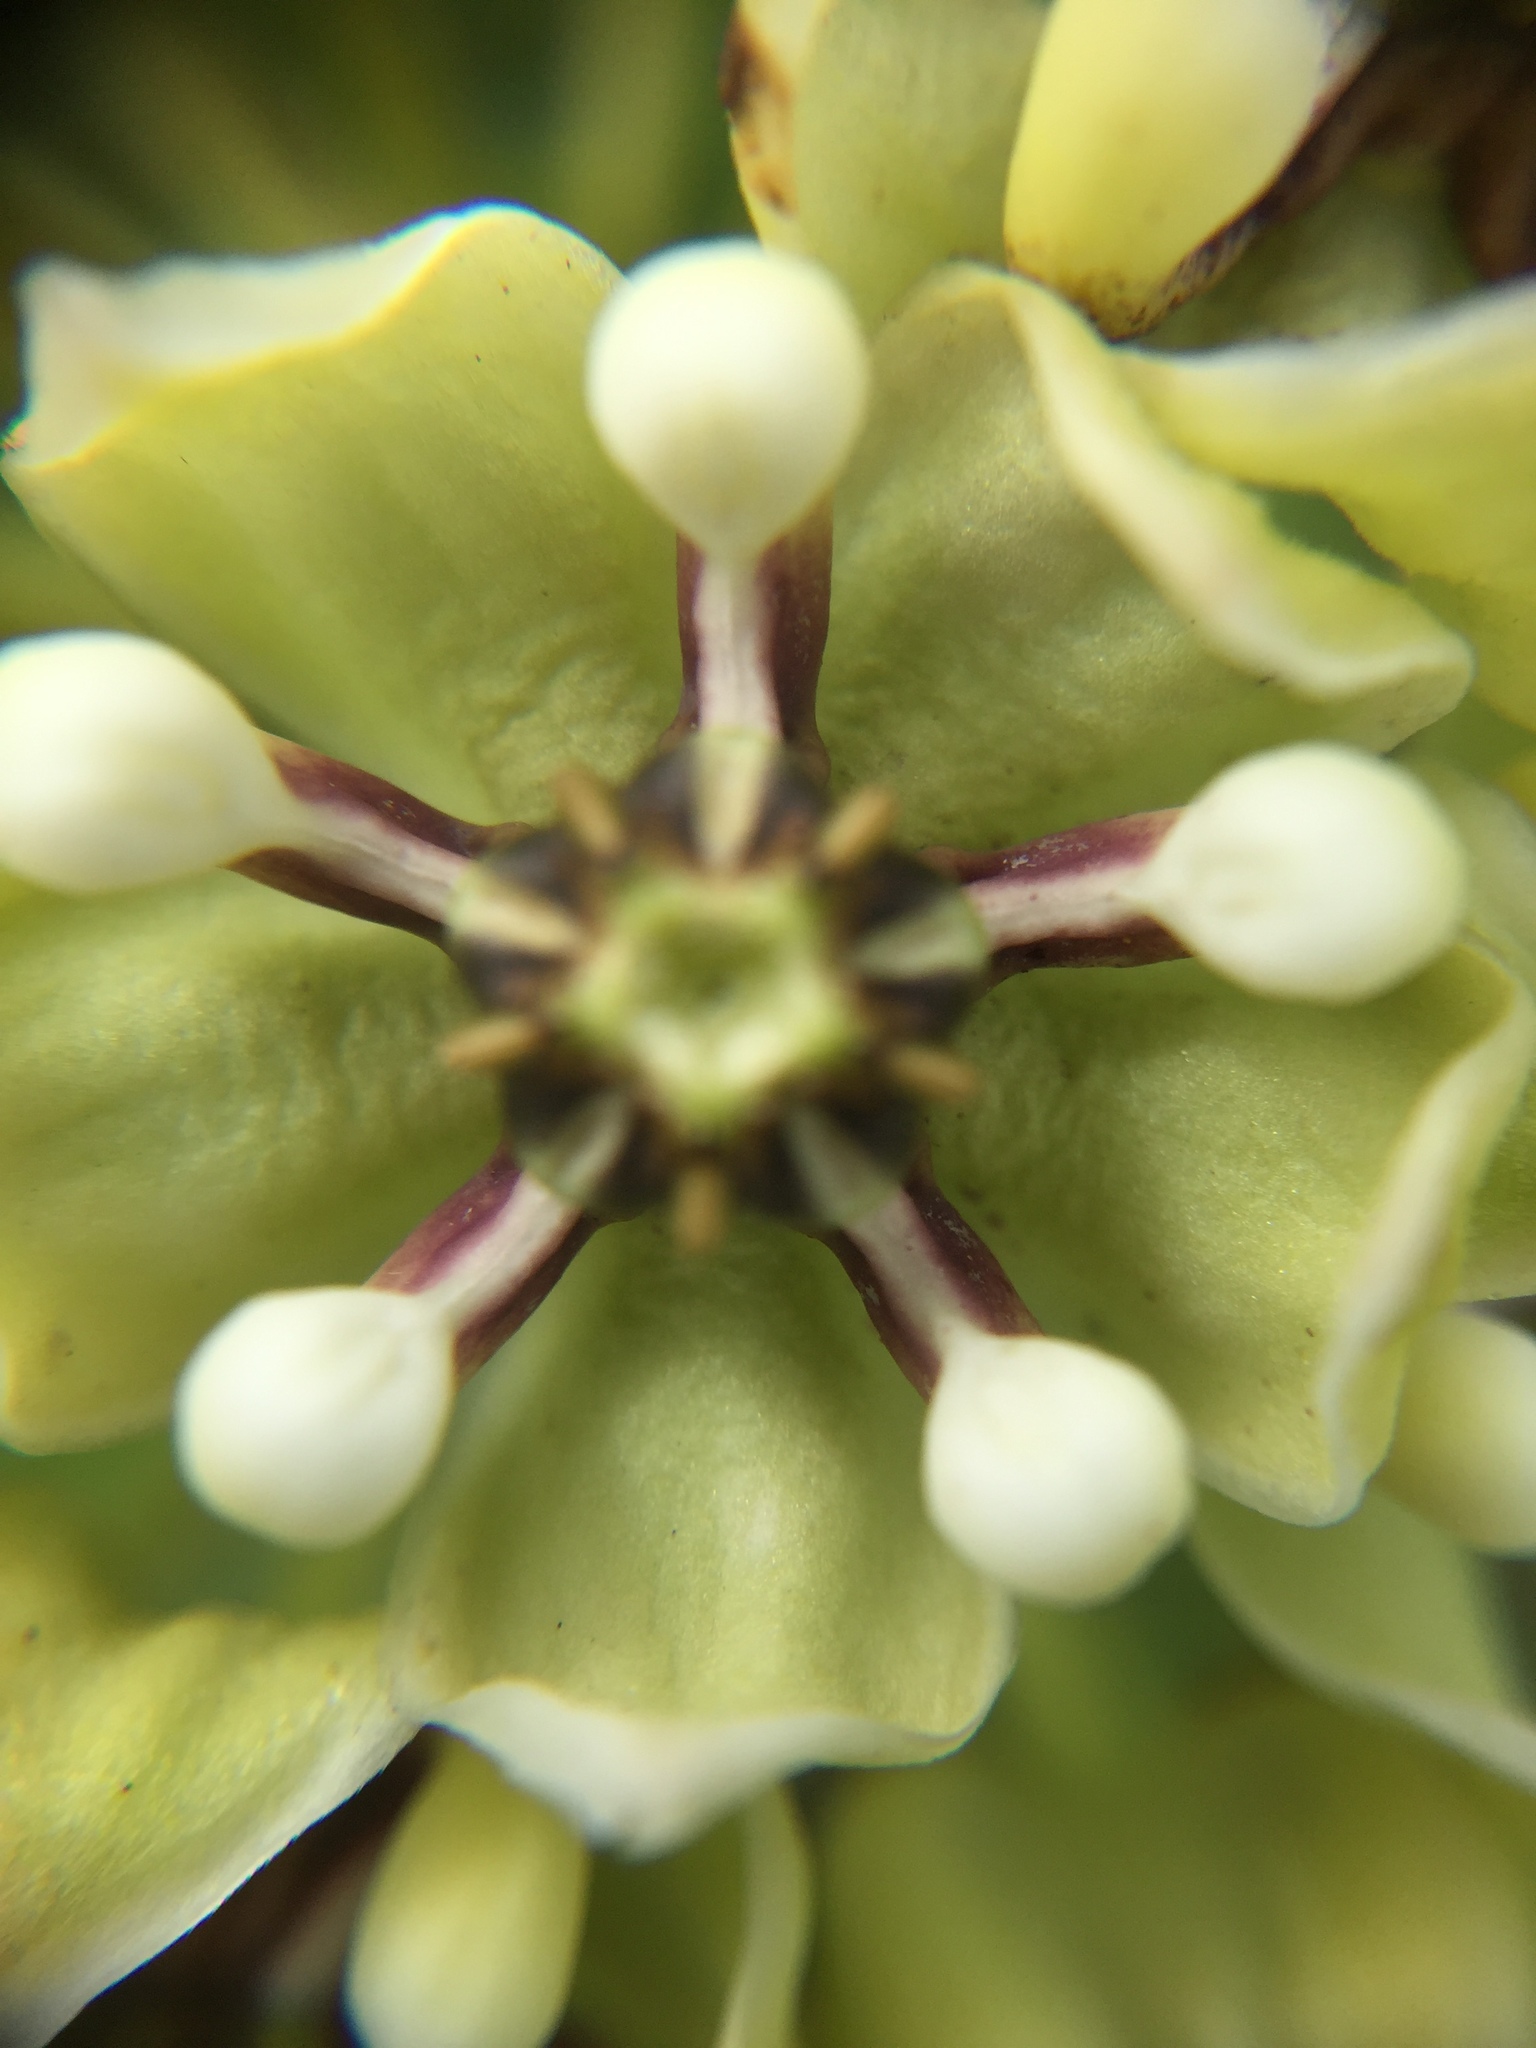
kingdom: Plantae
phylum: Tracheophyta
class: Magnoliopsida
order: Gentianales
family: Apocynaceae
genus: Asclepias
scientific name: Asclepias asperula
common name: Antelope horns
